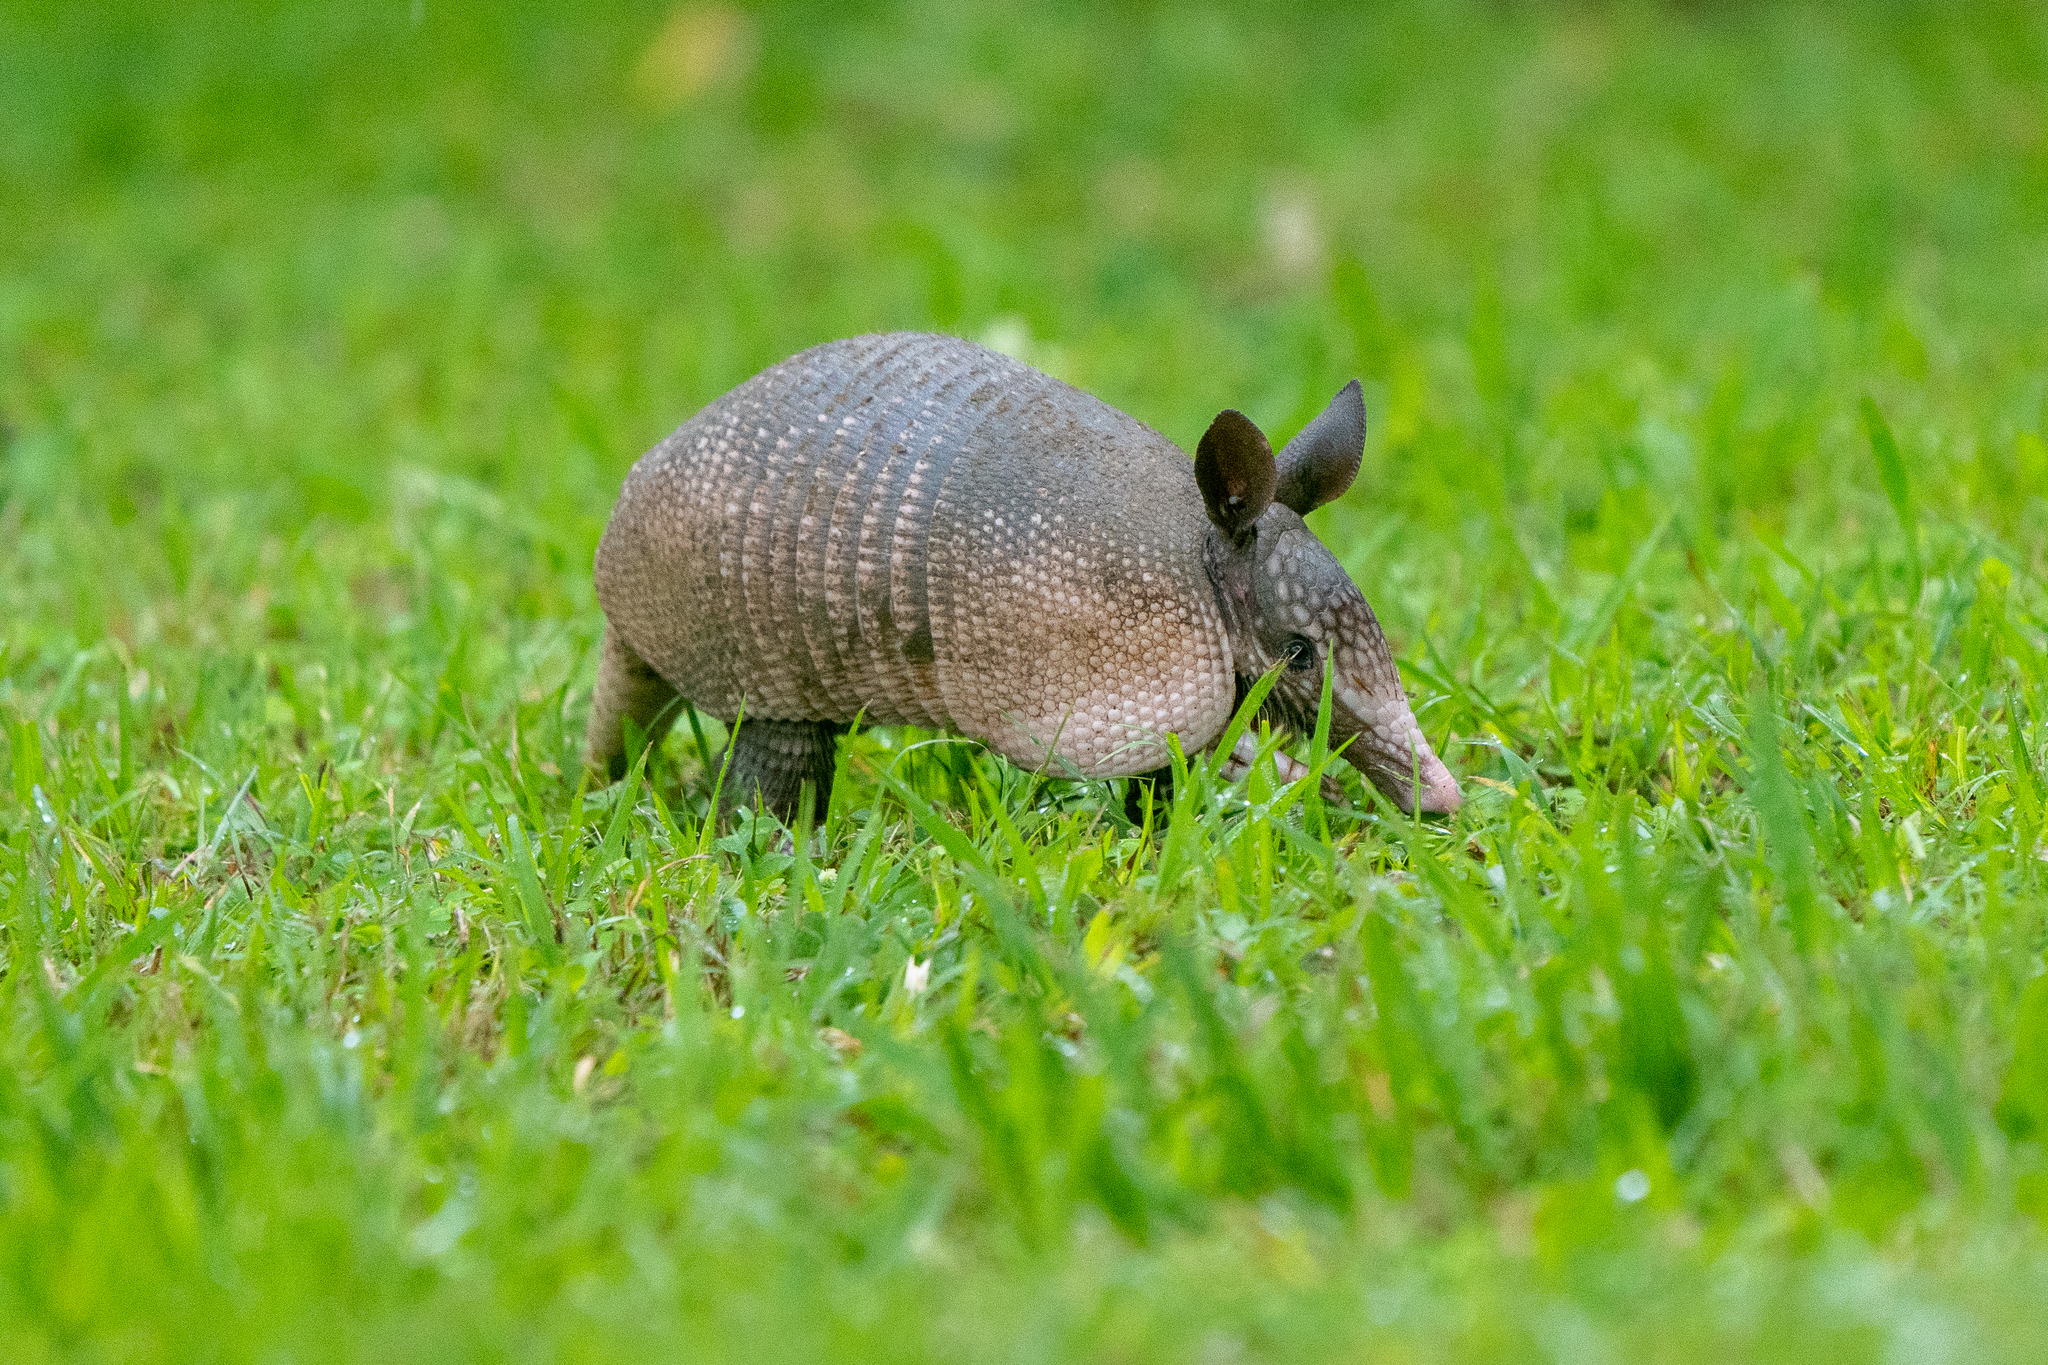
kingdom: Animalia
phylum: Chordata
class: Mammalia
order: Cingulata
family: Dasypodidae
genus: Dasypus
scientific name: Dasypus novemcinctus
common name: Nine-banded armadillo
